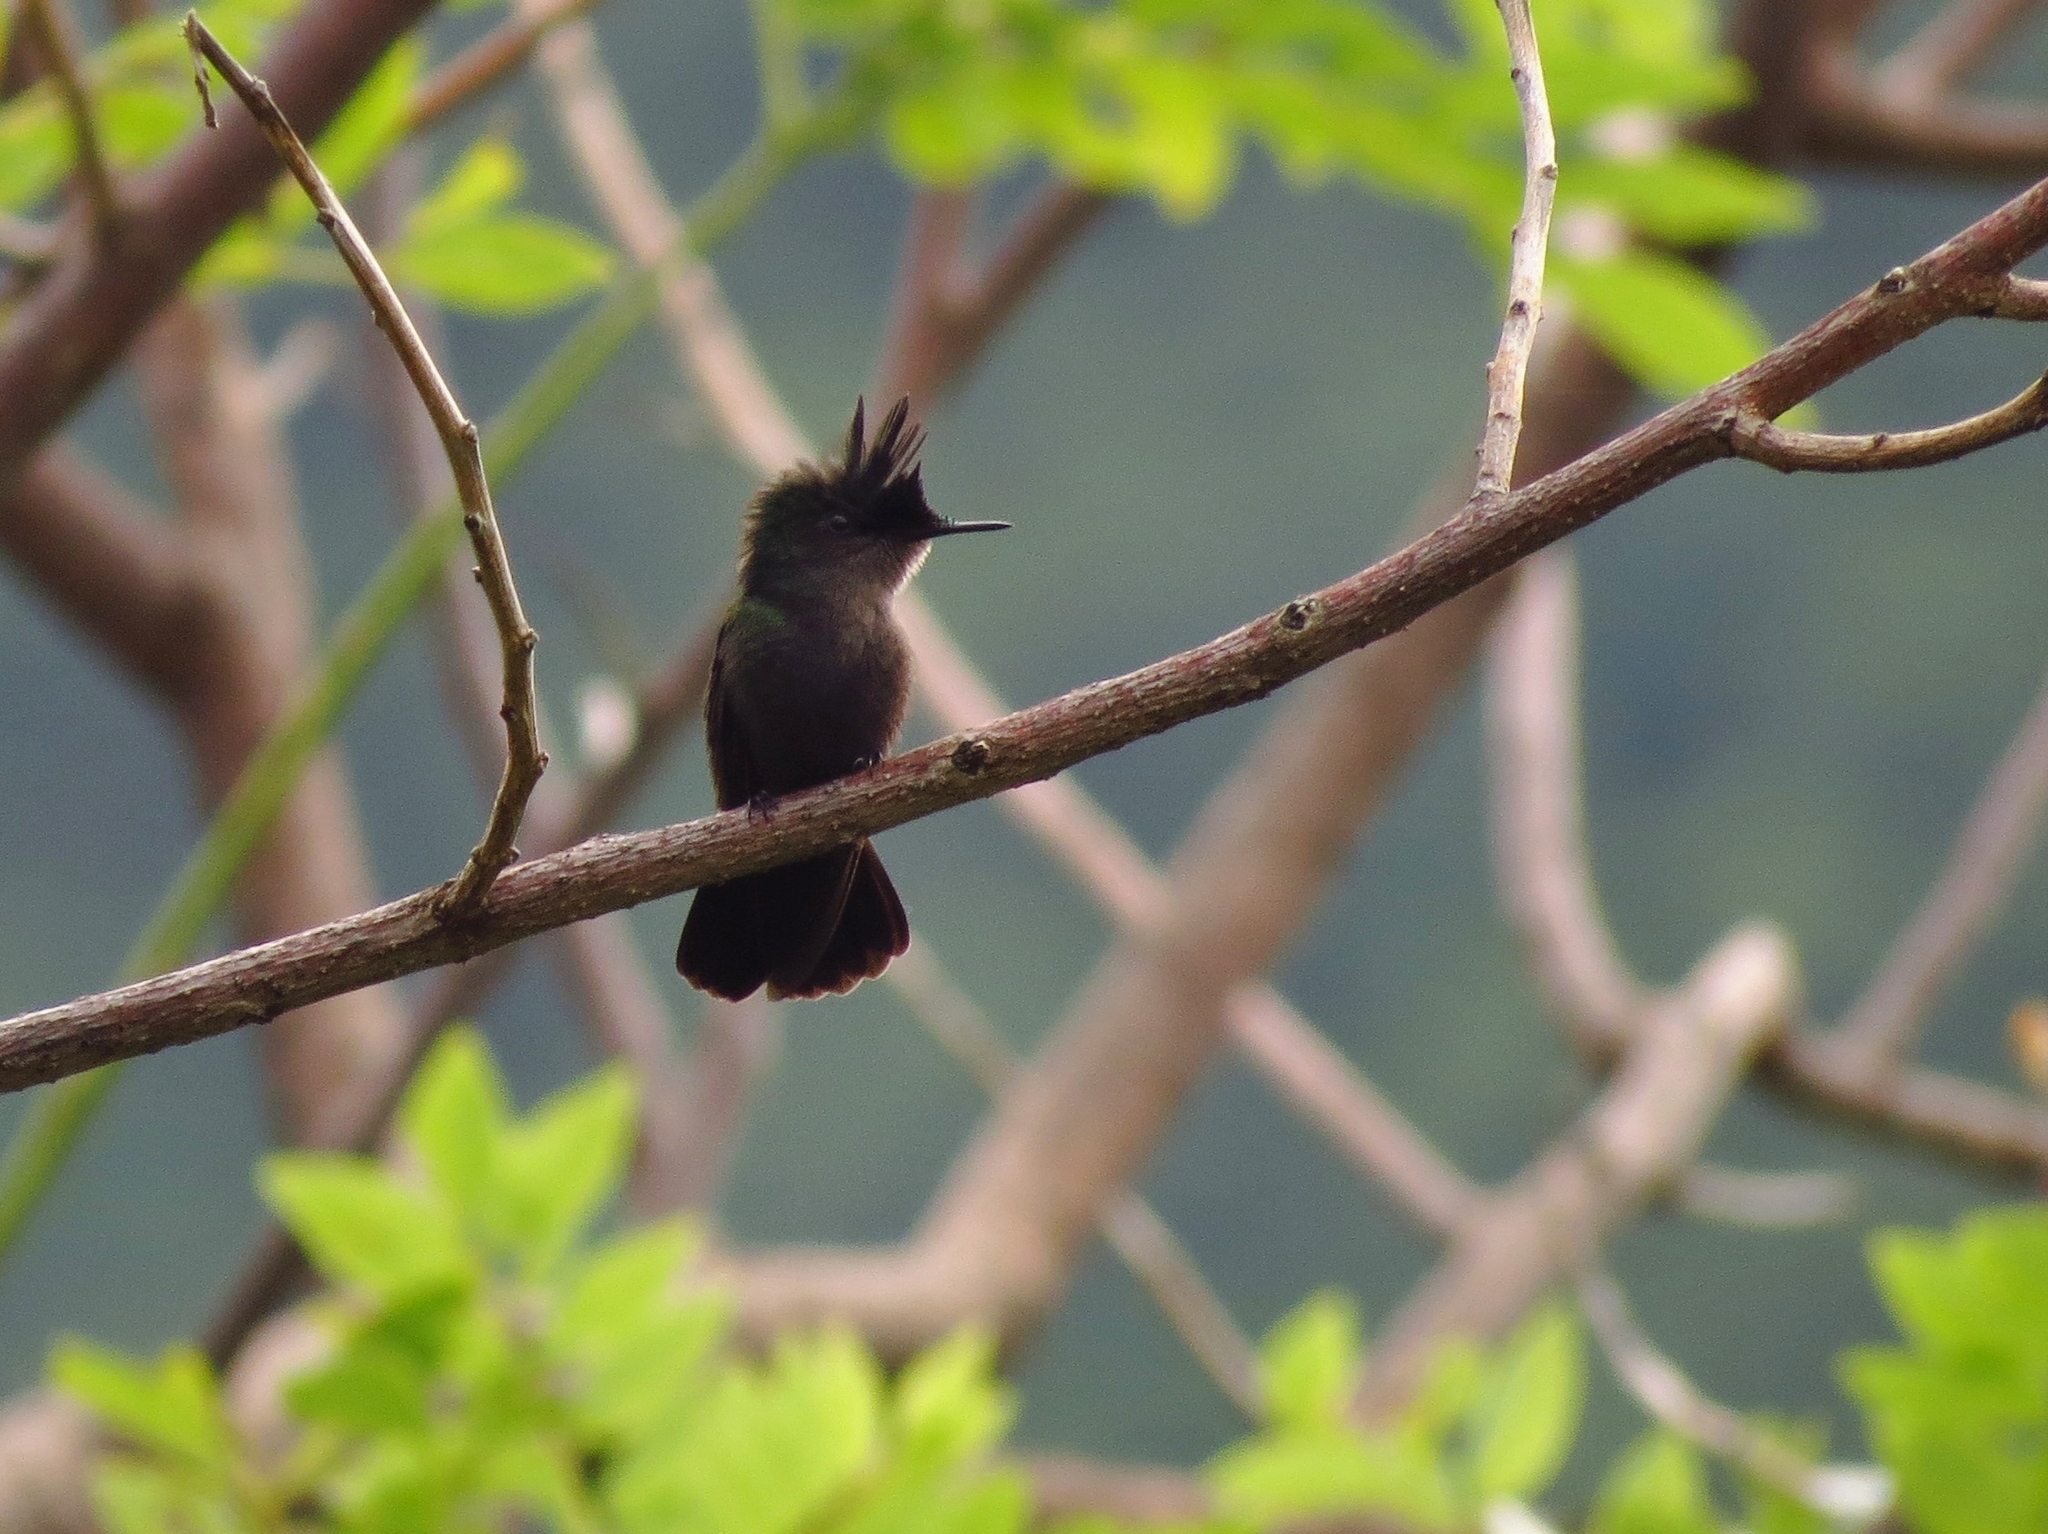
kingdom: Animalia
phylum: Chordata
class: Aves
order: Apodiformes
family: Trochilidae
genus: Orthorhyncus
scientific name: Orthorhyncus cristatus
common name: Antillean crested hummingbird
